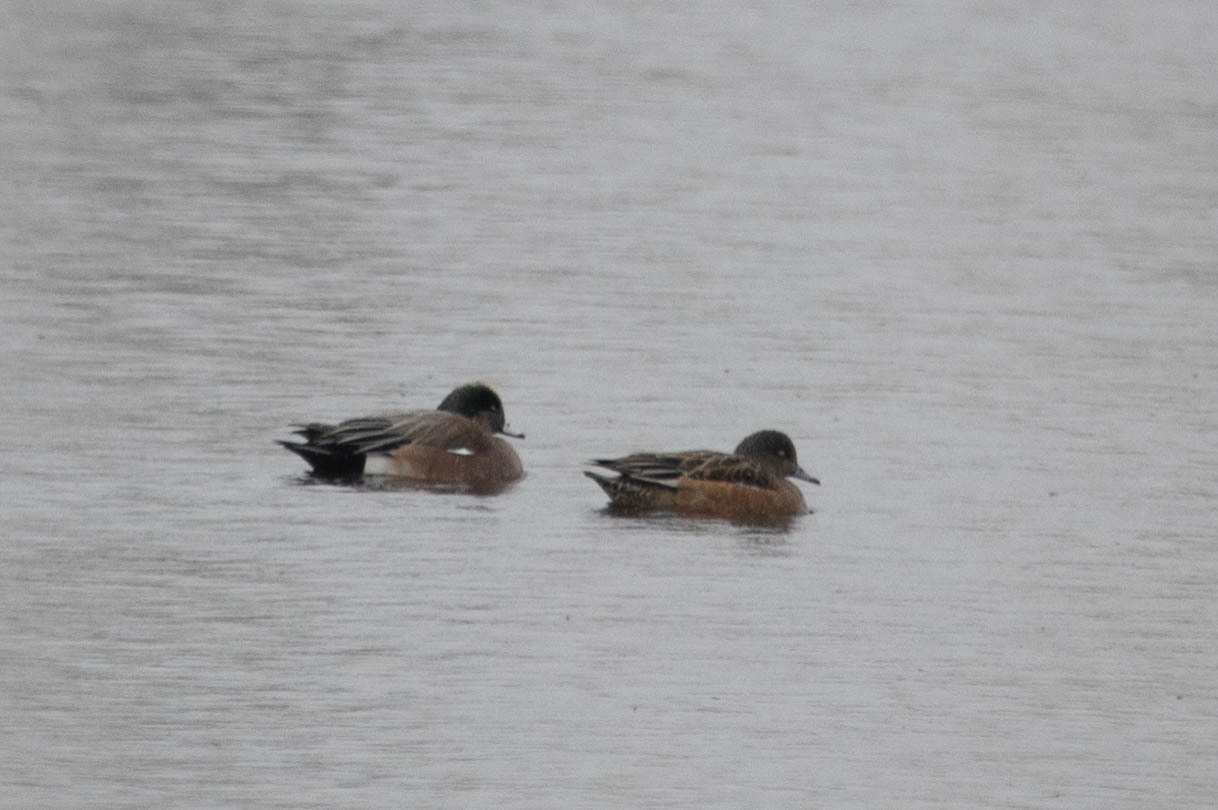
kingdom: Animalia
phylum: Chordata
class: Aves
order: Anseriformes
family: Anatidae
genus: Mareca
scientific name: Mareca americana
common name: American wigeon
